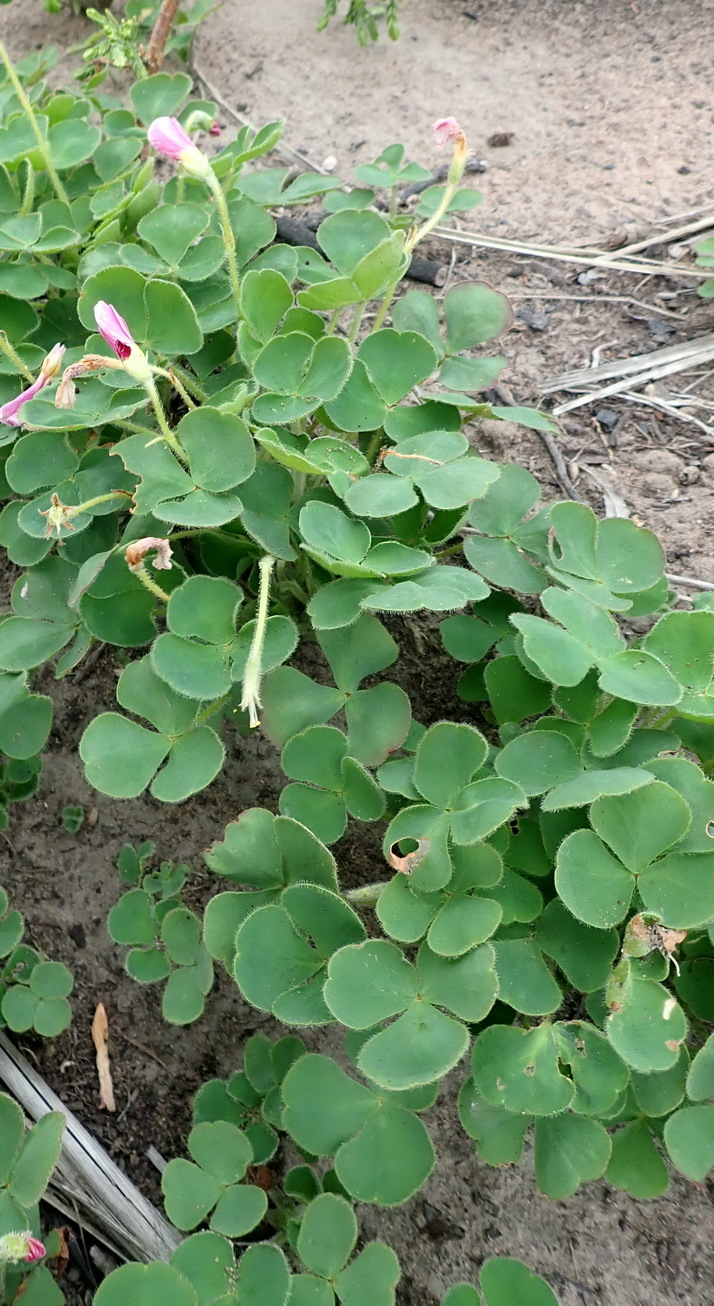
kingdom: Plantae
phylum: Tracheophyta
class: Magnoliopsida
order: Oxalidales
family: Oxalidaceae
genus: Oxalis
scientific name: Oxalis imbricata
